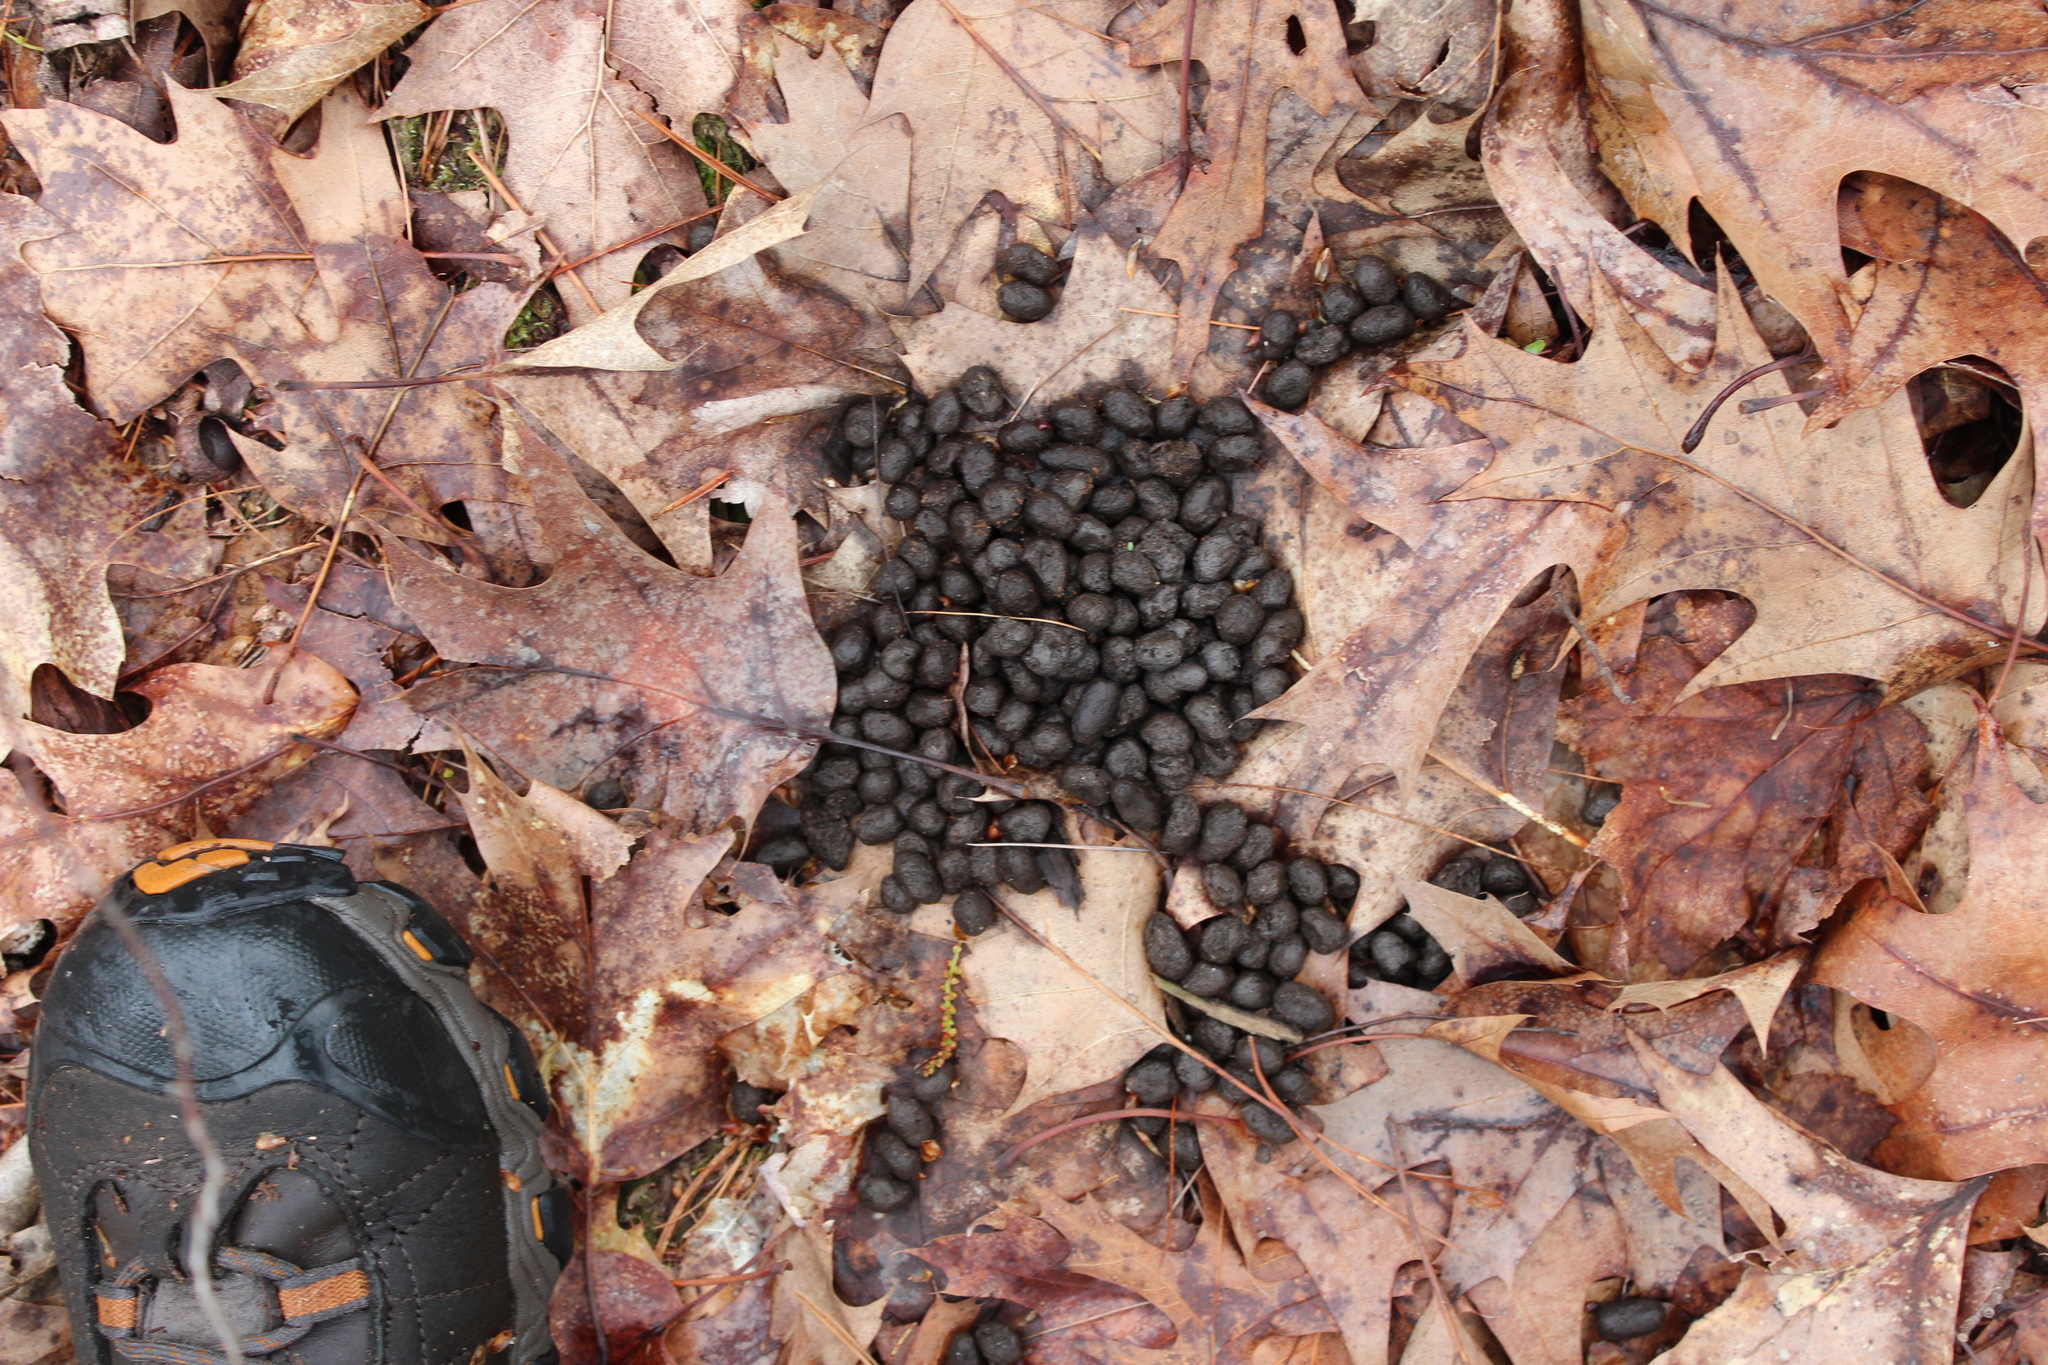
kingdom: Animalia
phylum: Chordata
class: Mammalia
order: Artiodactyla
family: Cervidae
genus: Odocoileus
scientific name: Odocoileus virginianus
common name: White-tailed deer
